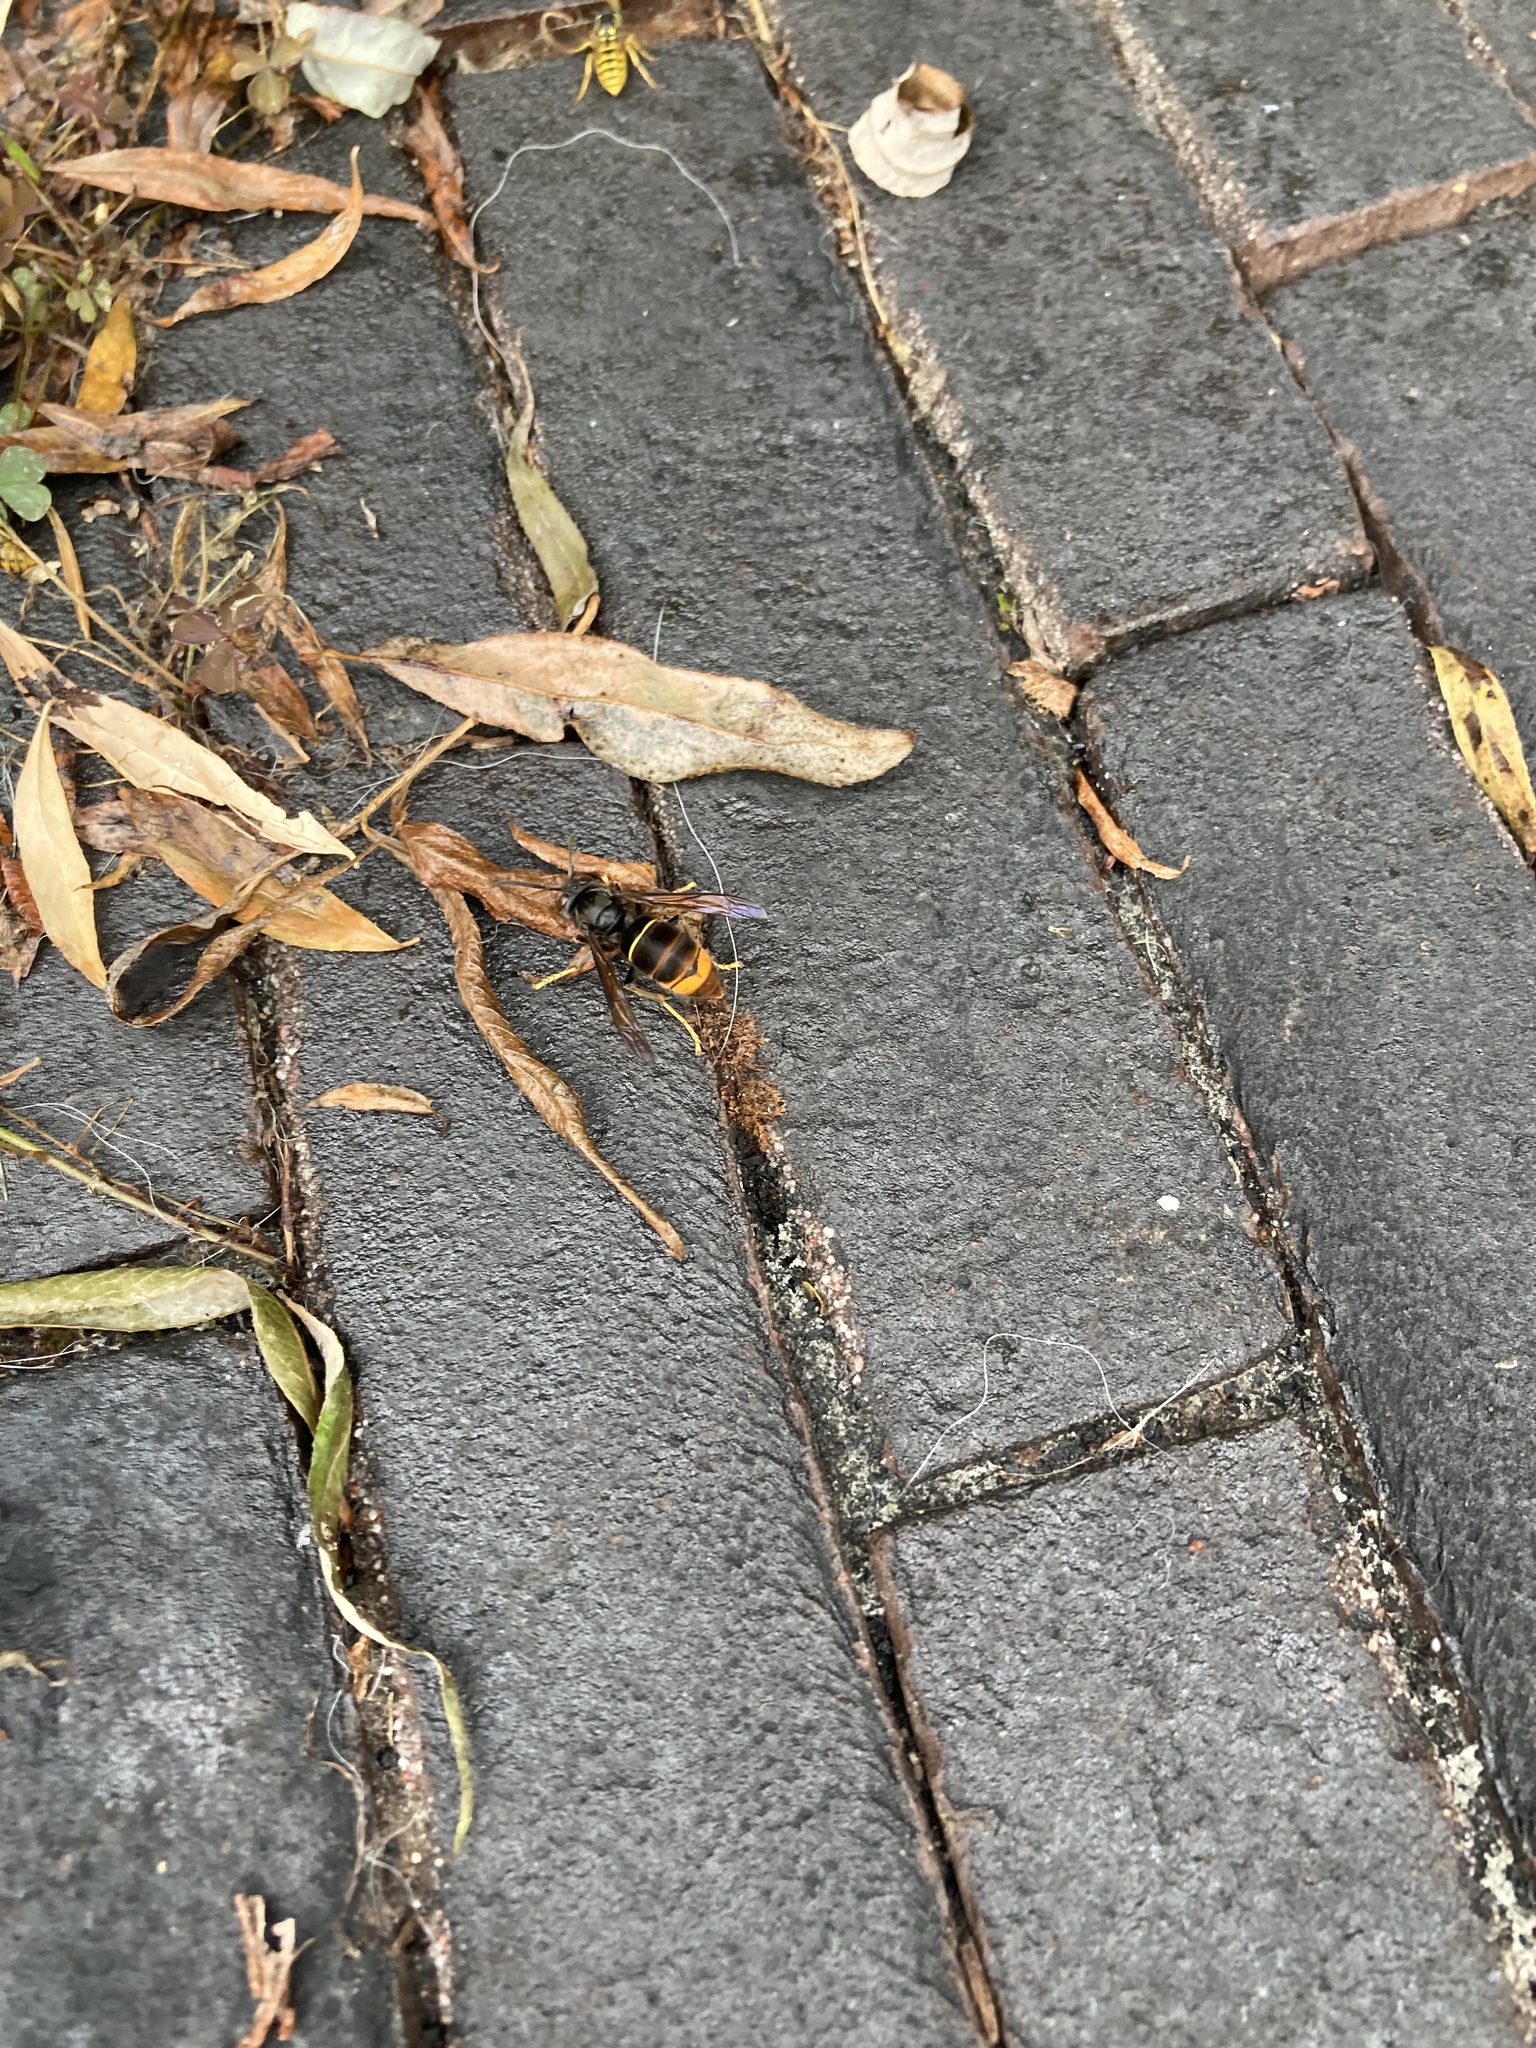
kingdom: Animalia
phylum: Arthropoda
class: Insecta
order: Hymenoptera
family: Vespidae
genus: Vespa
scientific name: Vespa velutina
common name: Asian hornet
